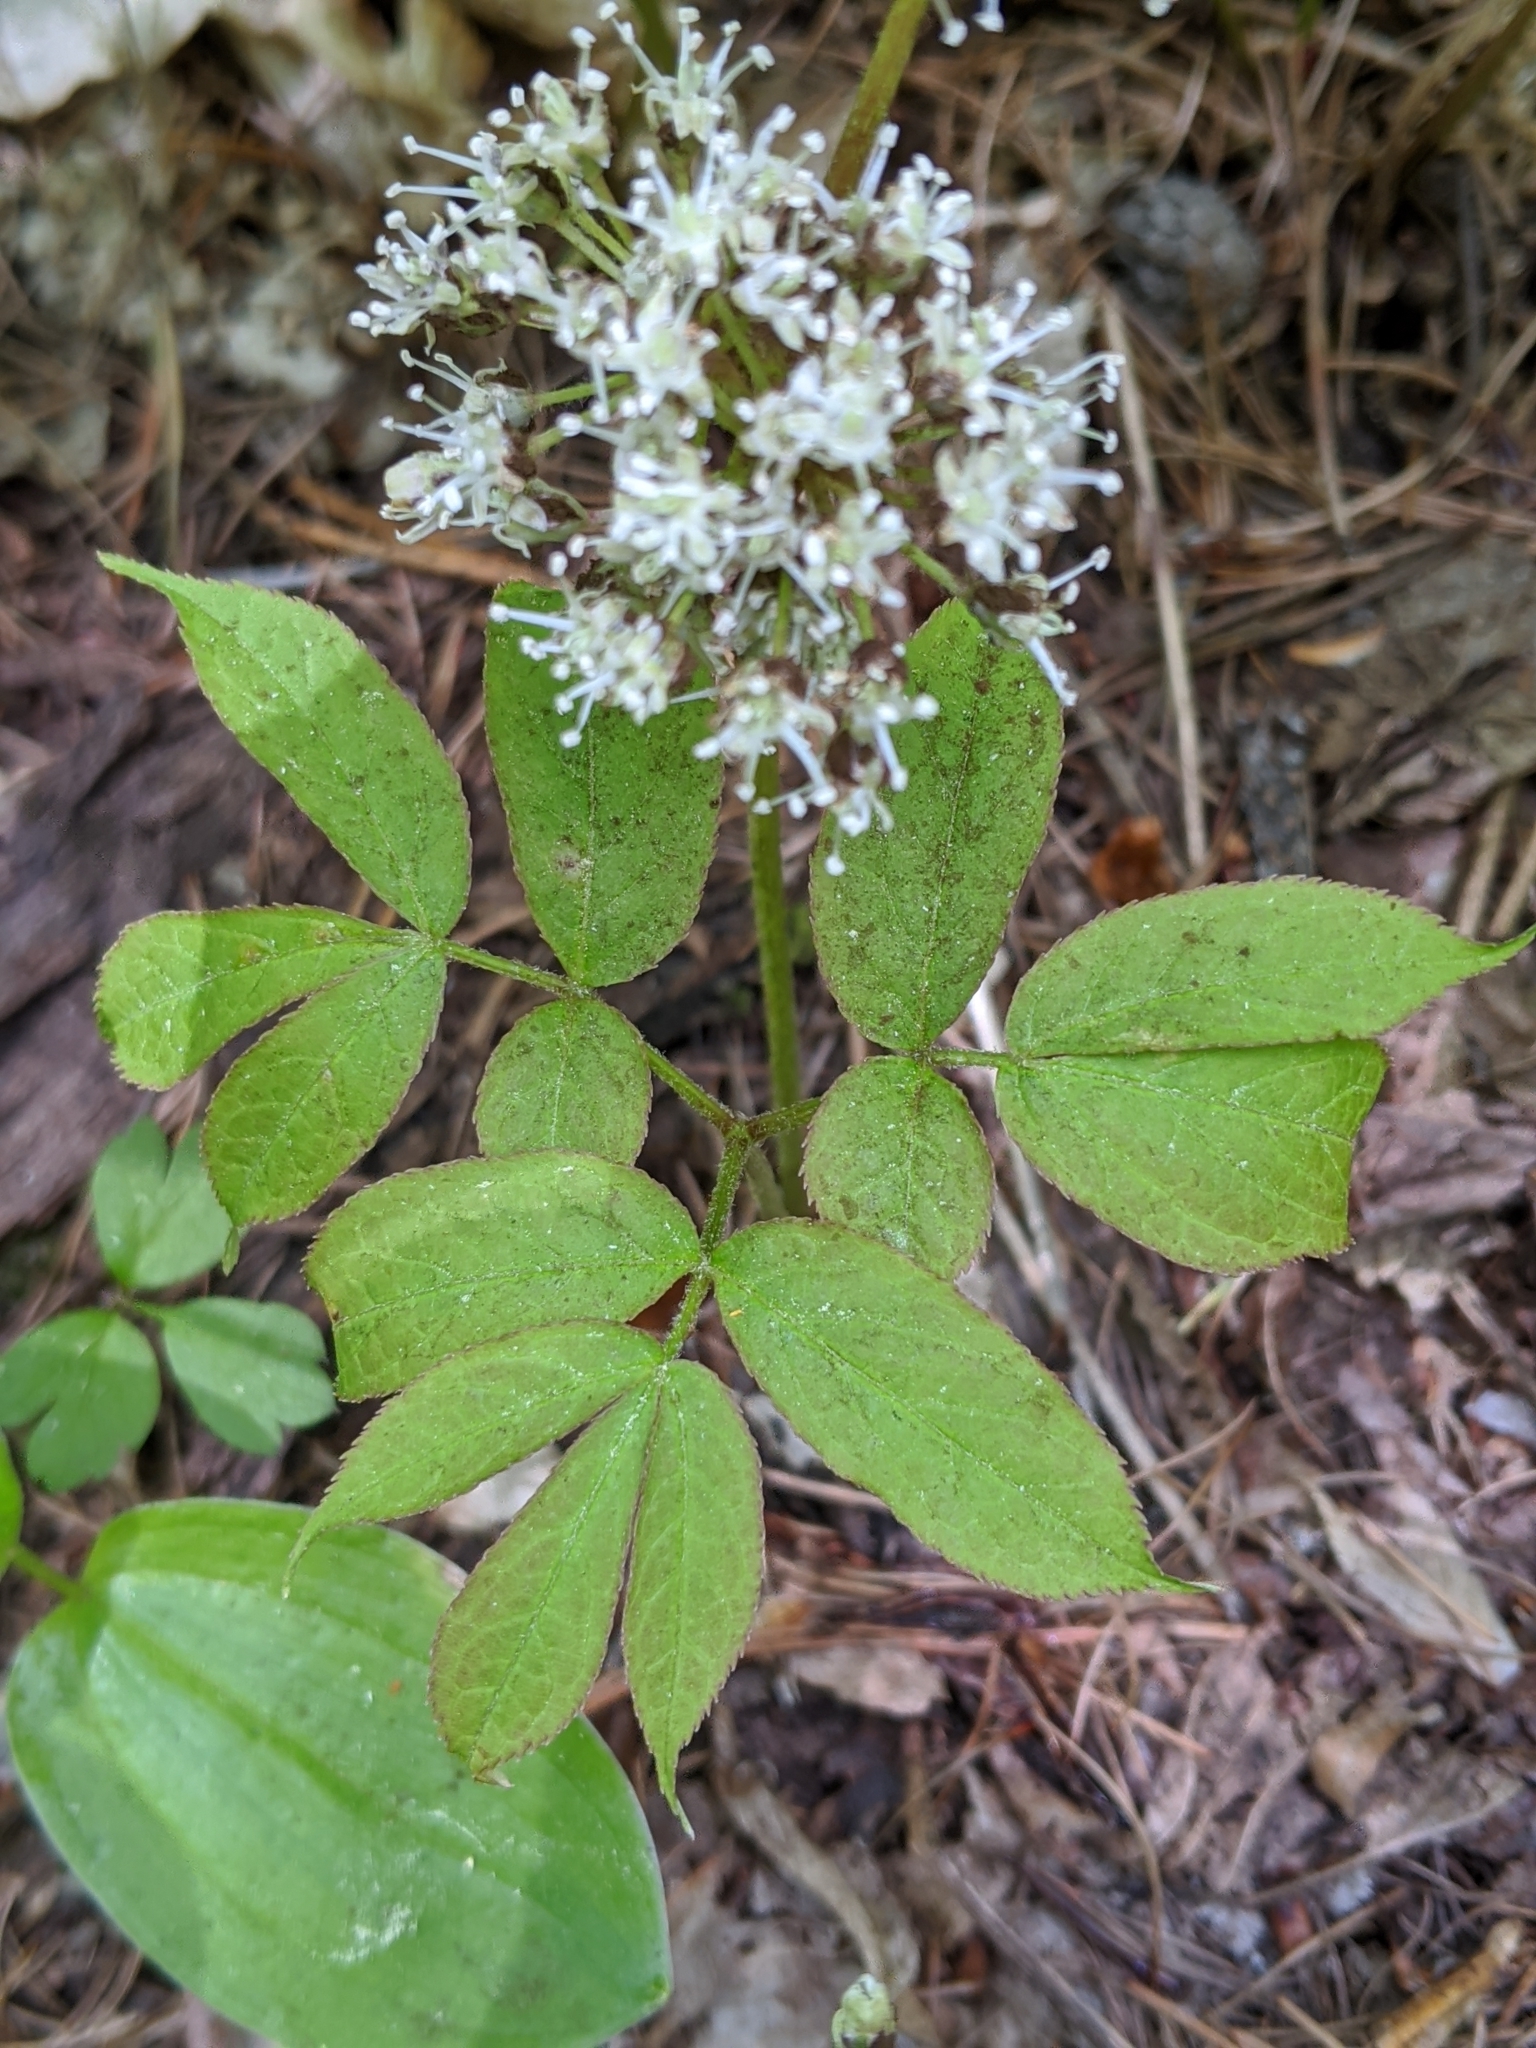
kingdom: Plantae
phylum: Tracheophyta
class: Magnoliopsida
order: Apiales
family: Araliaceae
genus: Aralia
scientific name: Aralia nudicaulis
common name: Wild sarsaparilla
